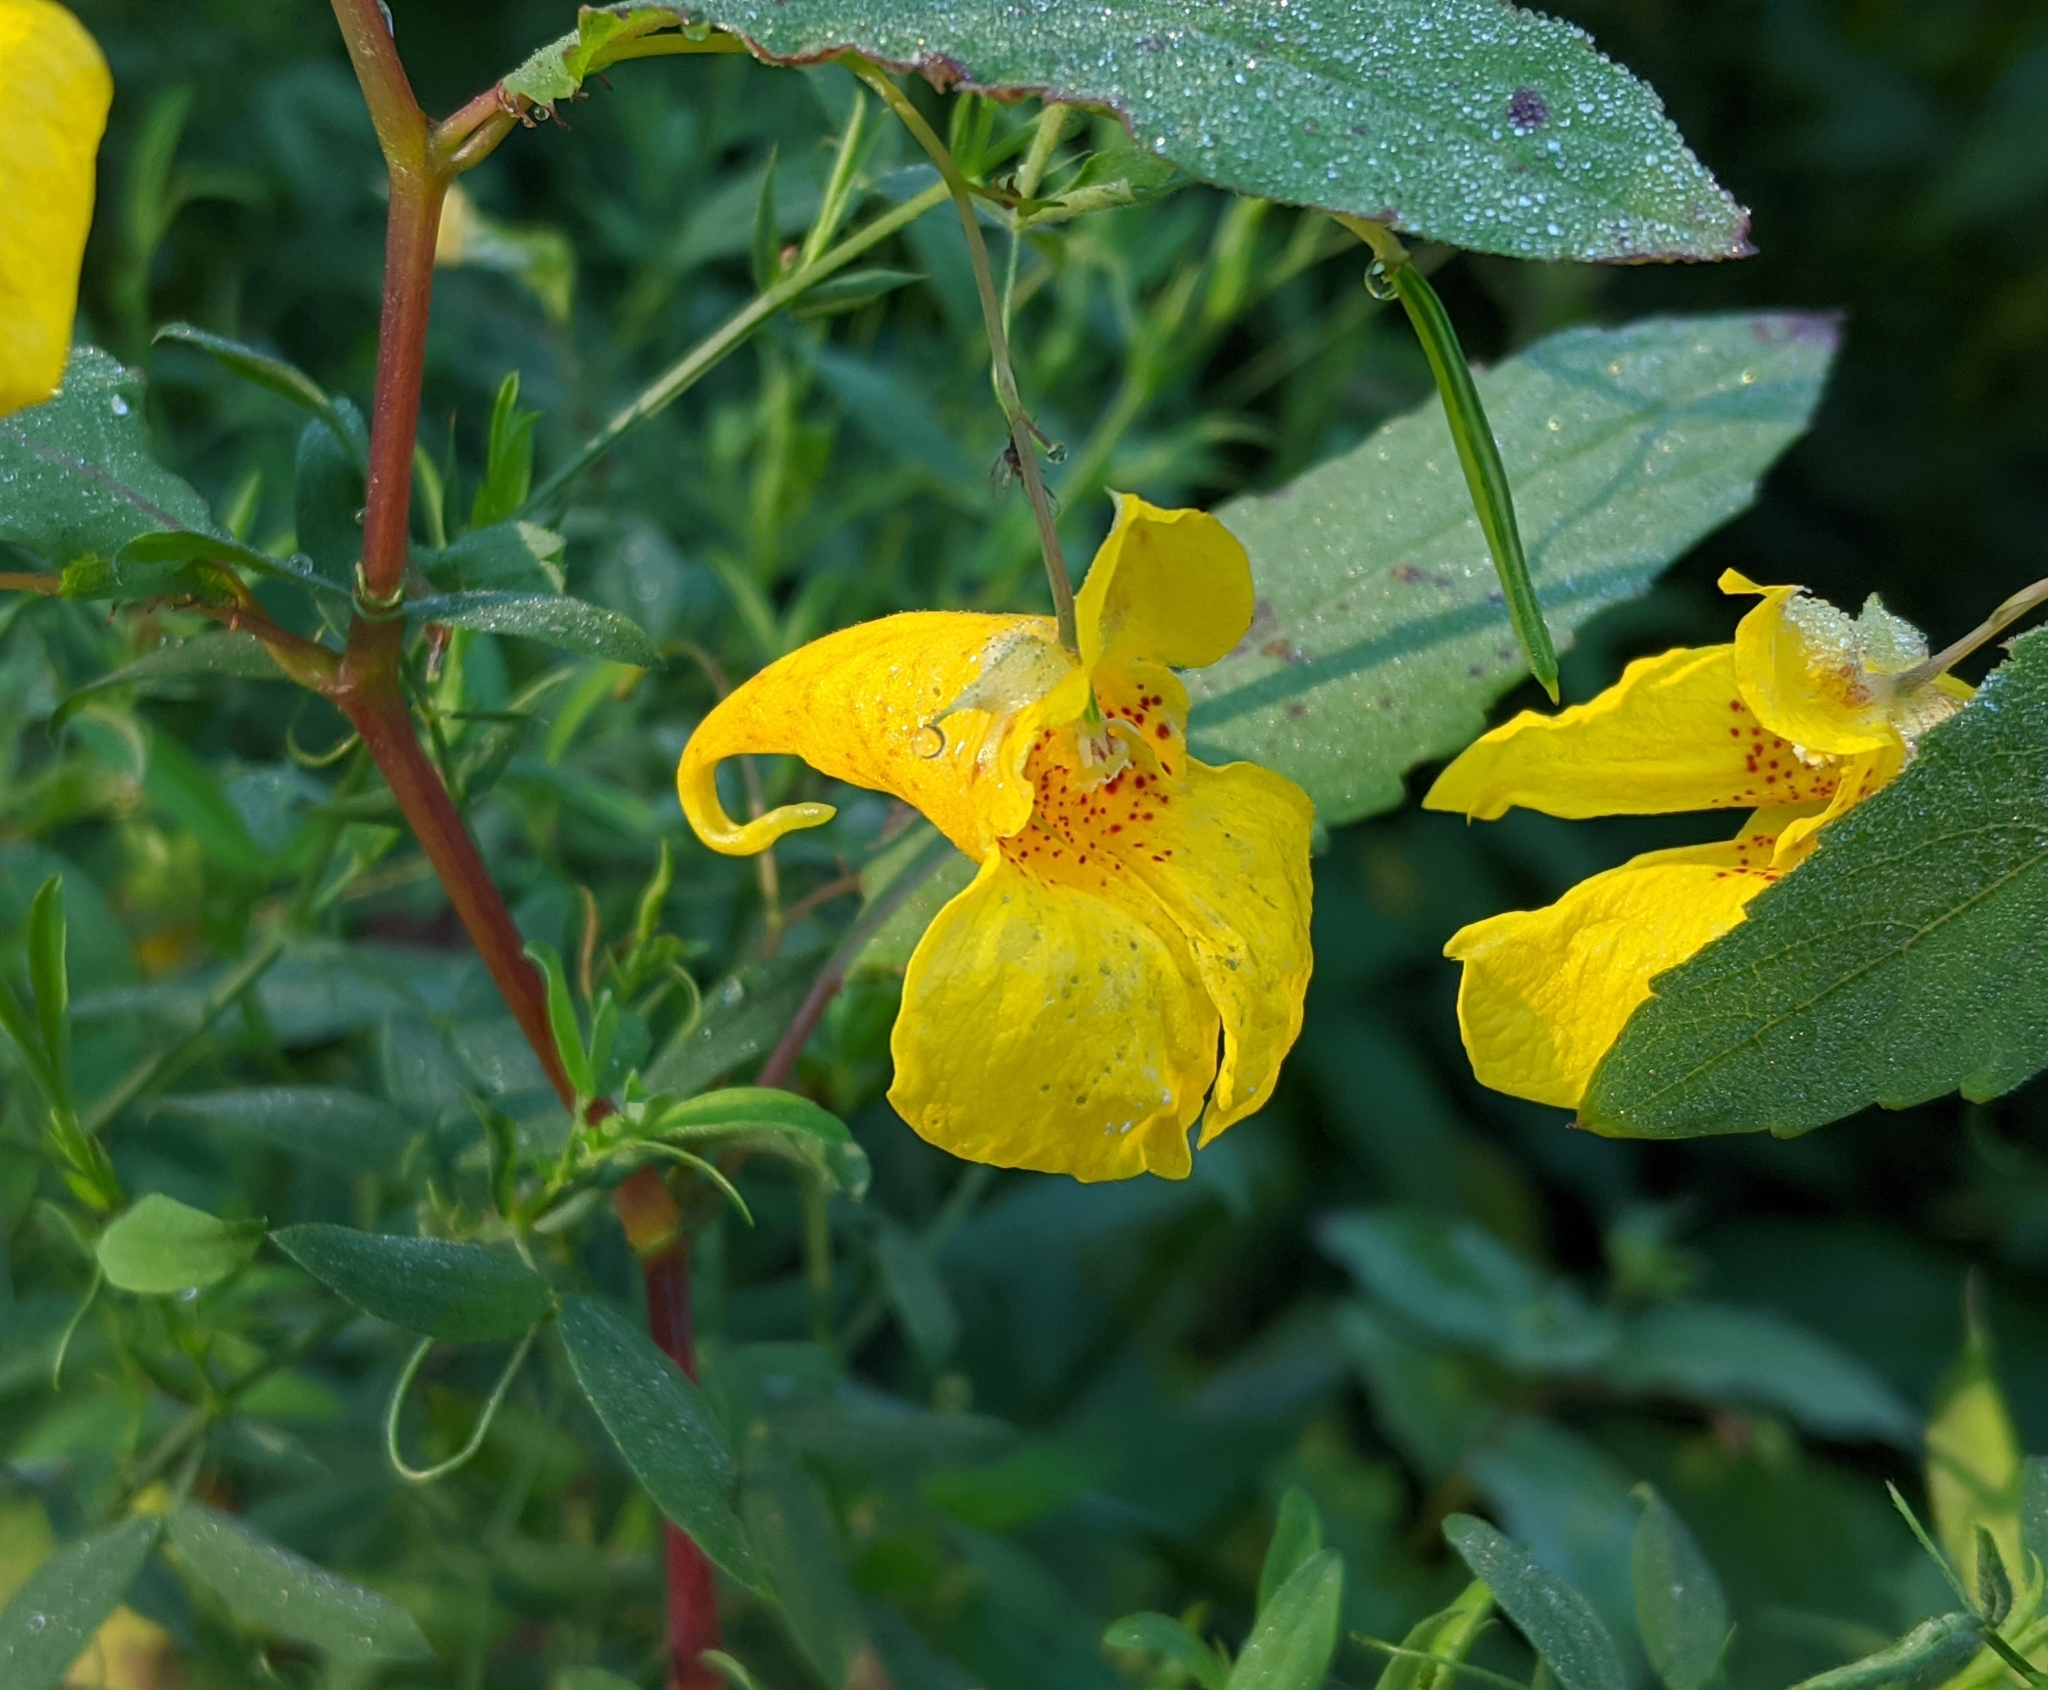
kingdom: Plantae
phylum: Tracheophyta
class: Magnoliopsida
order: Ericales
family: Balsaminaceae
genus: Impatiens
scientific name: Impatiens noli-tangere
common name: Touch-me-not balsam
